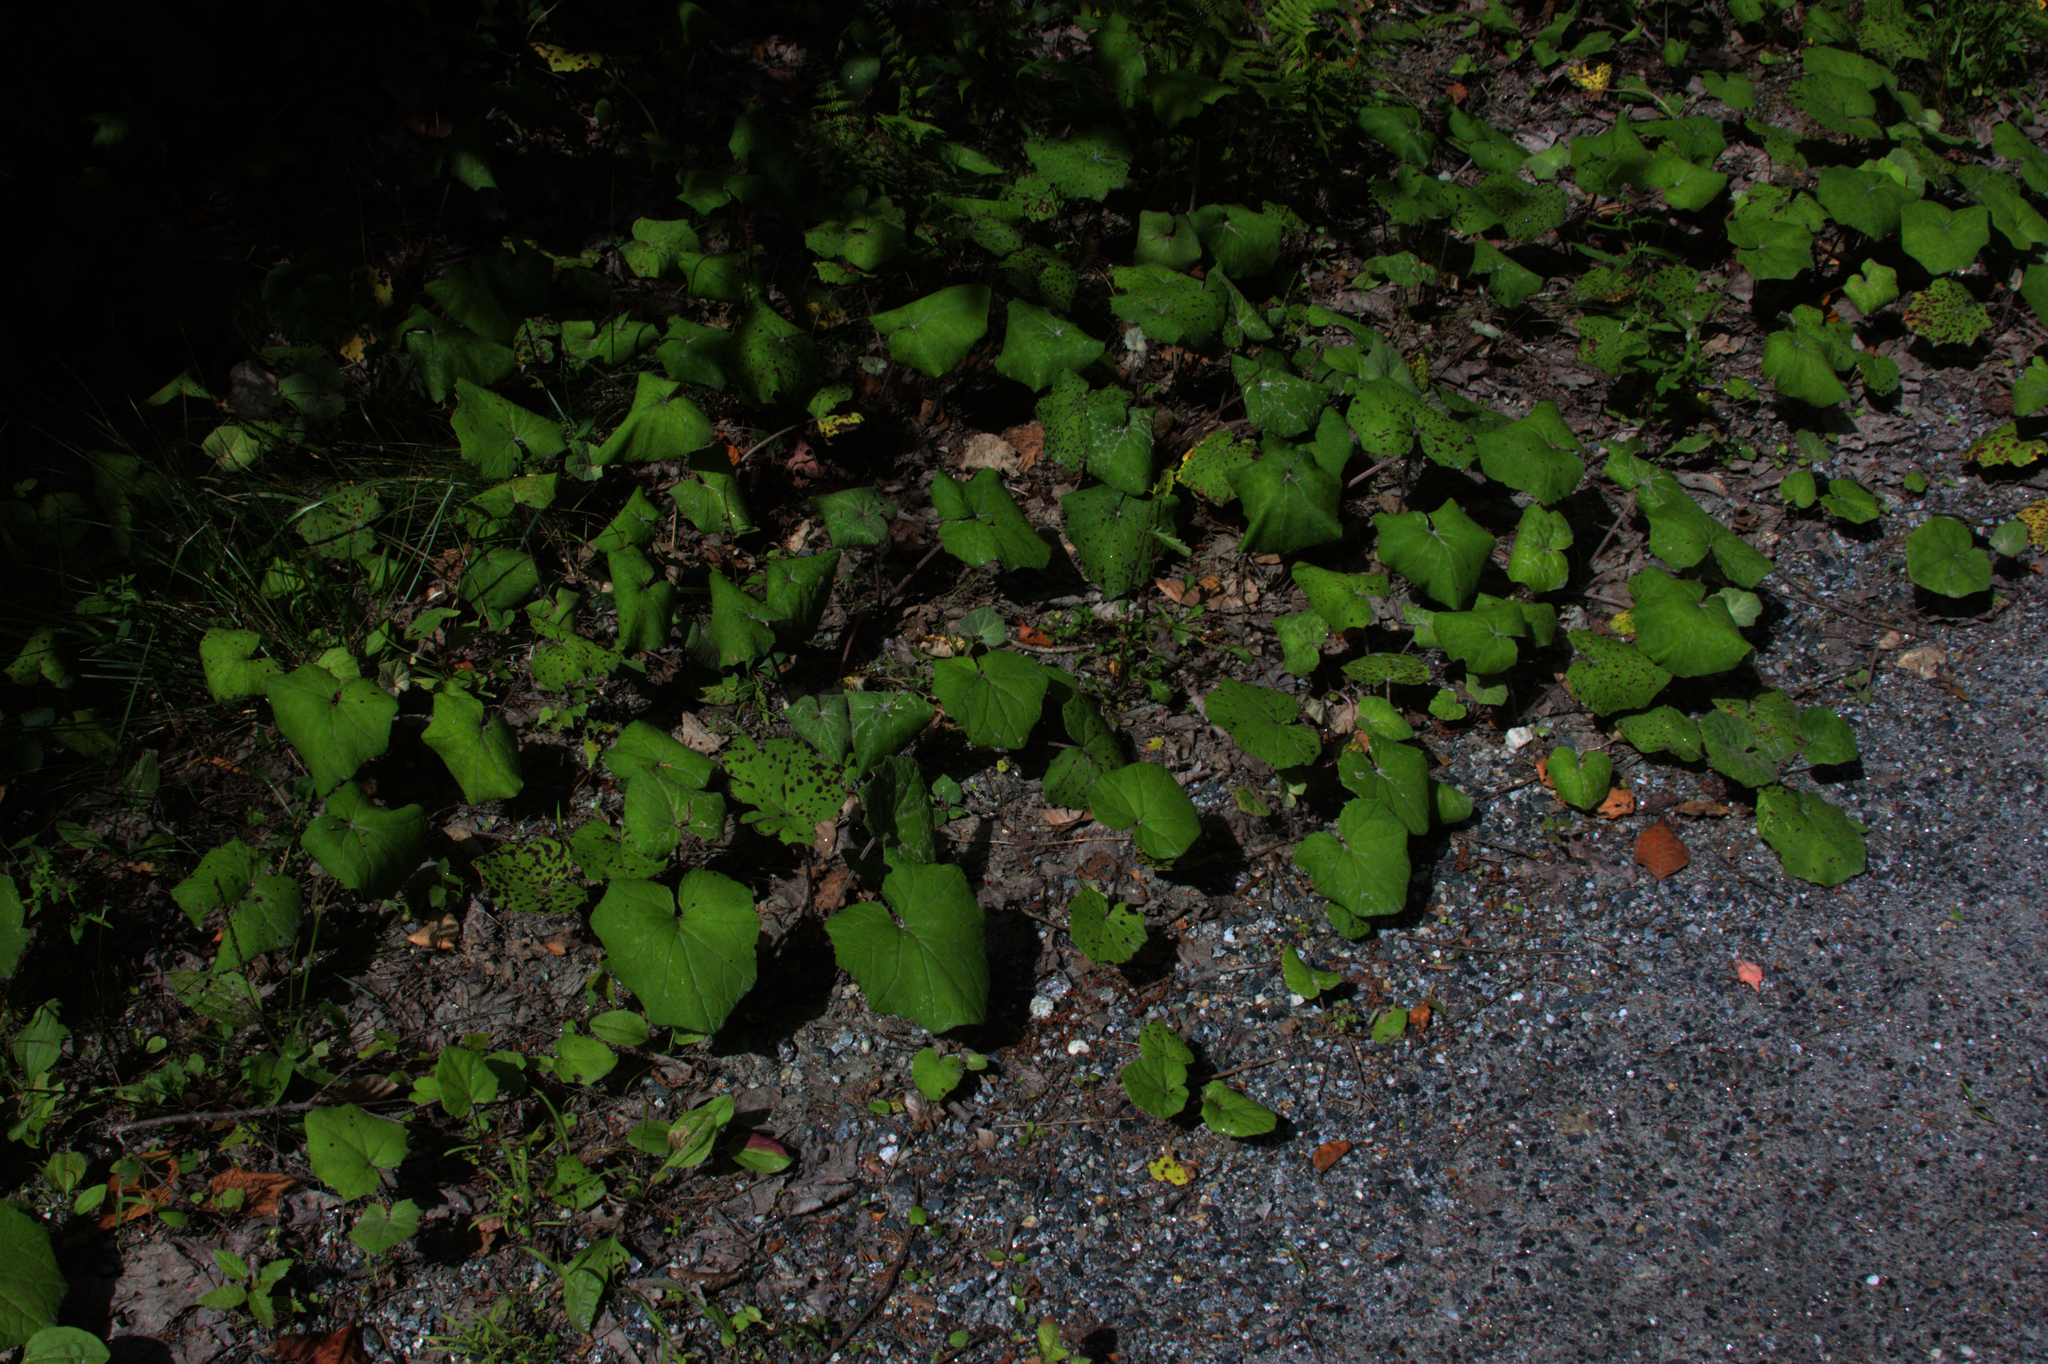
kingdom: Plantae
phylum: Tracheophyta
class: Magnoliopsida
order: Asterales
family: Asteraceae
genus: Tussilago
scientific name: Tussilago farfara
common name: Coltsfoot
